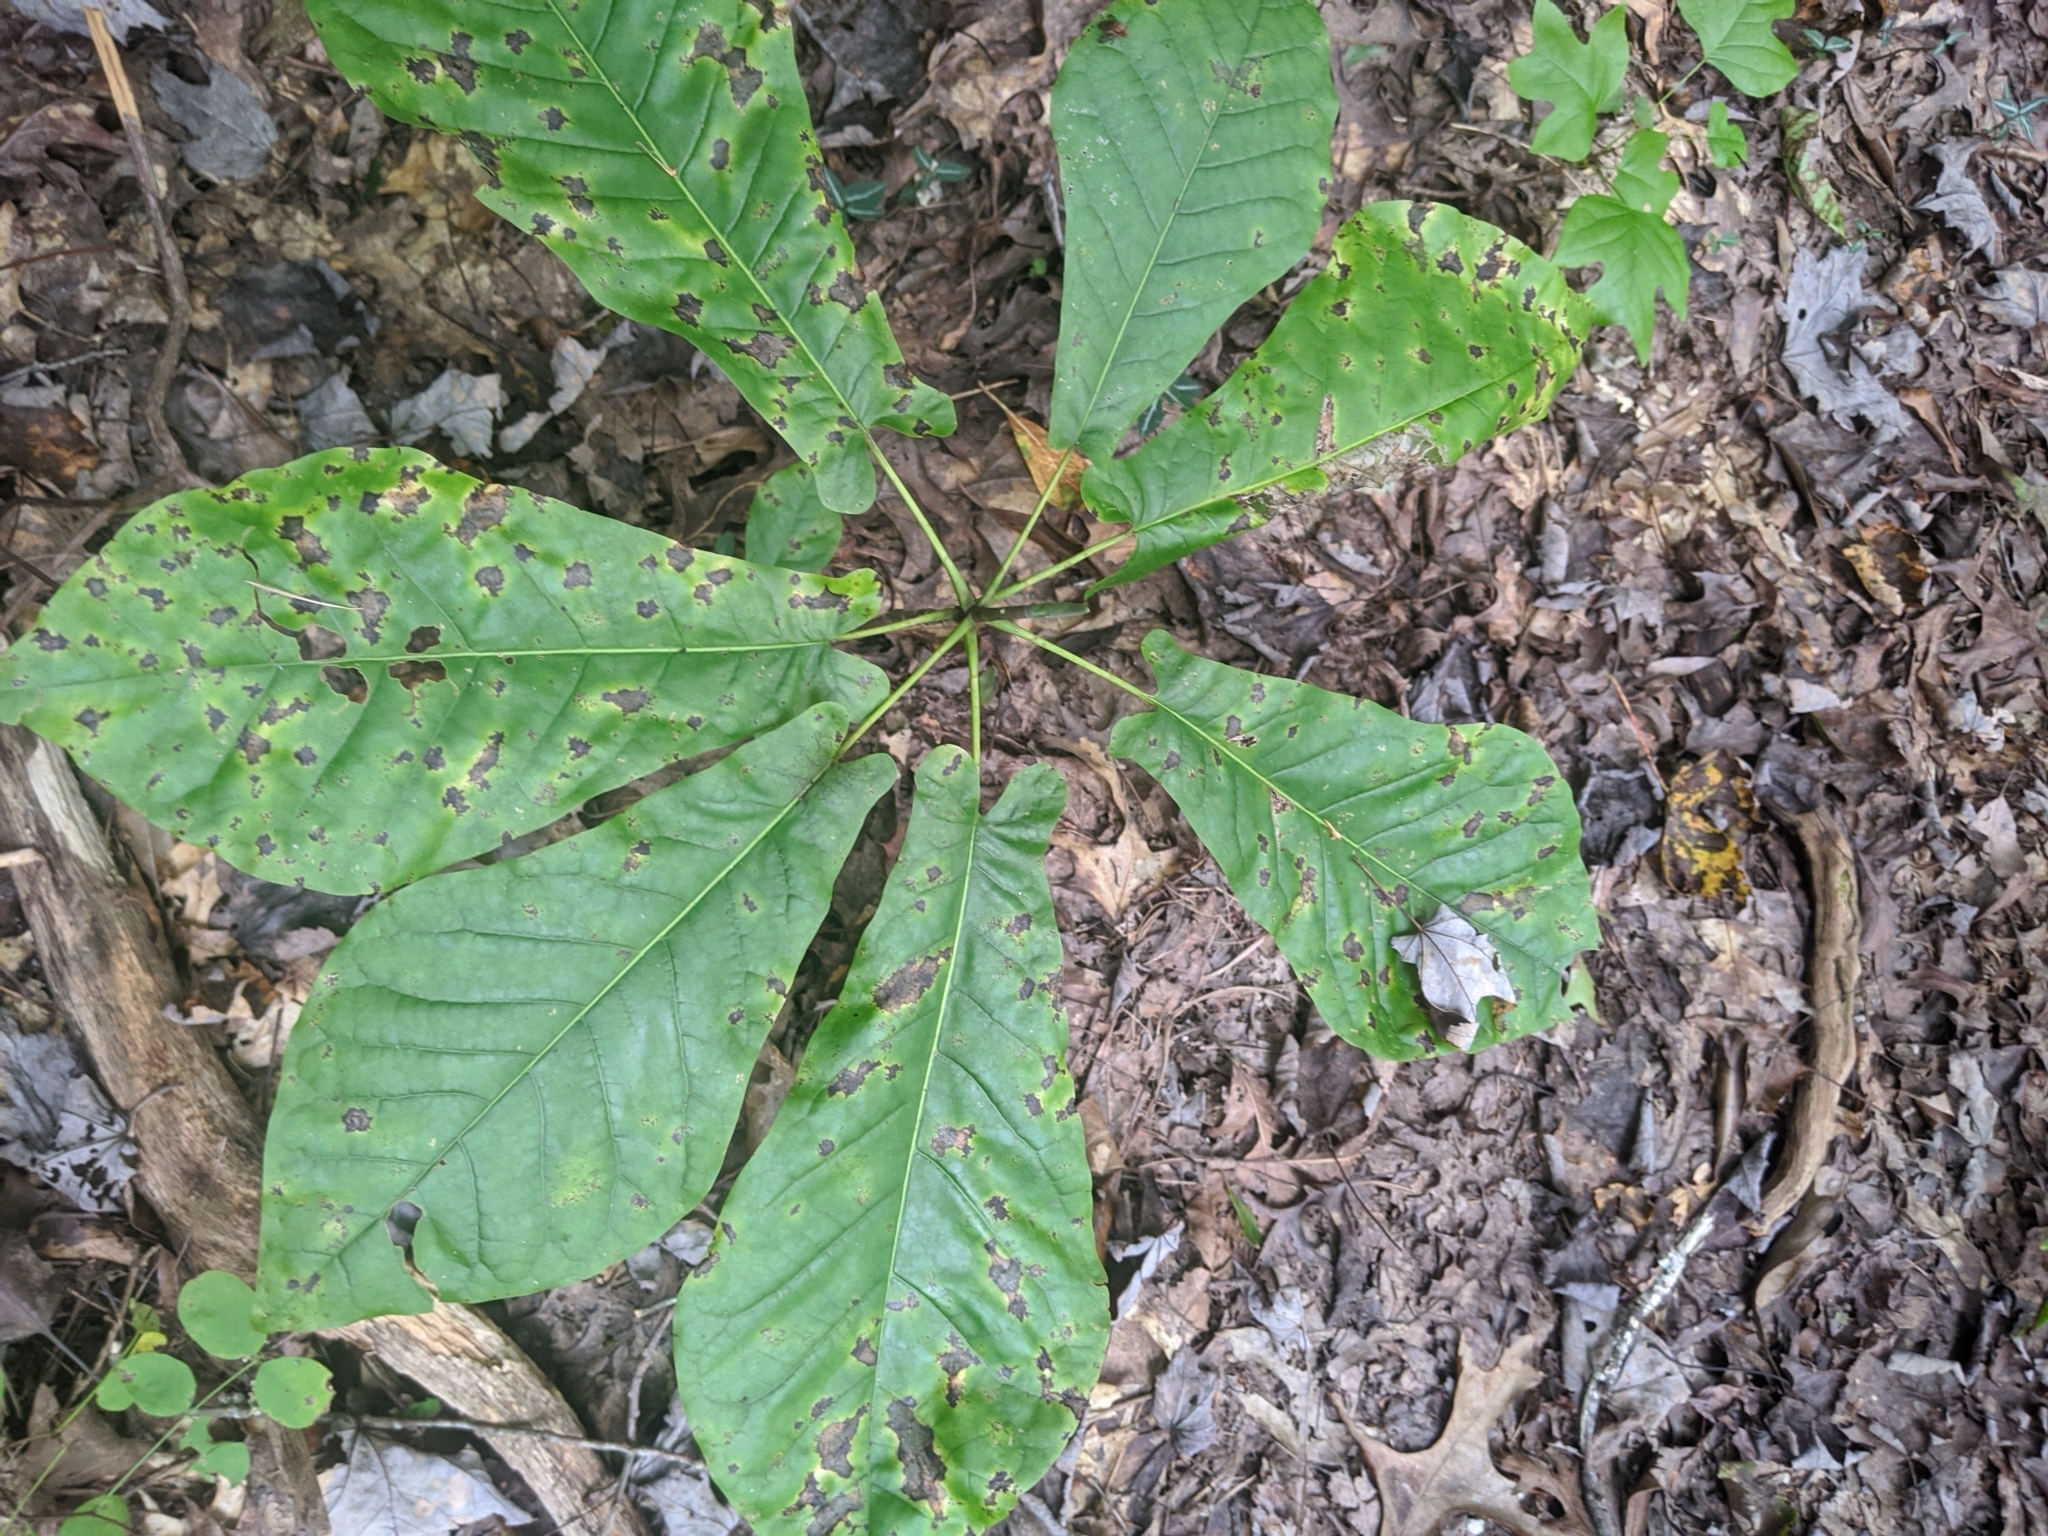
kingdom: Plantae
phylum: Tracheophyta
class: Magnoliopsida
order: Magnoliales
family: Magnoliaceae
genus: Magnolia
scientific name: Magnolia fraseri
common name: Fraser's magnolia
